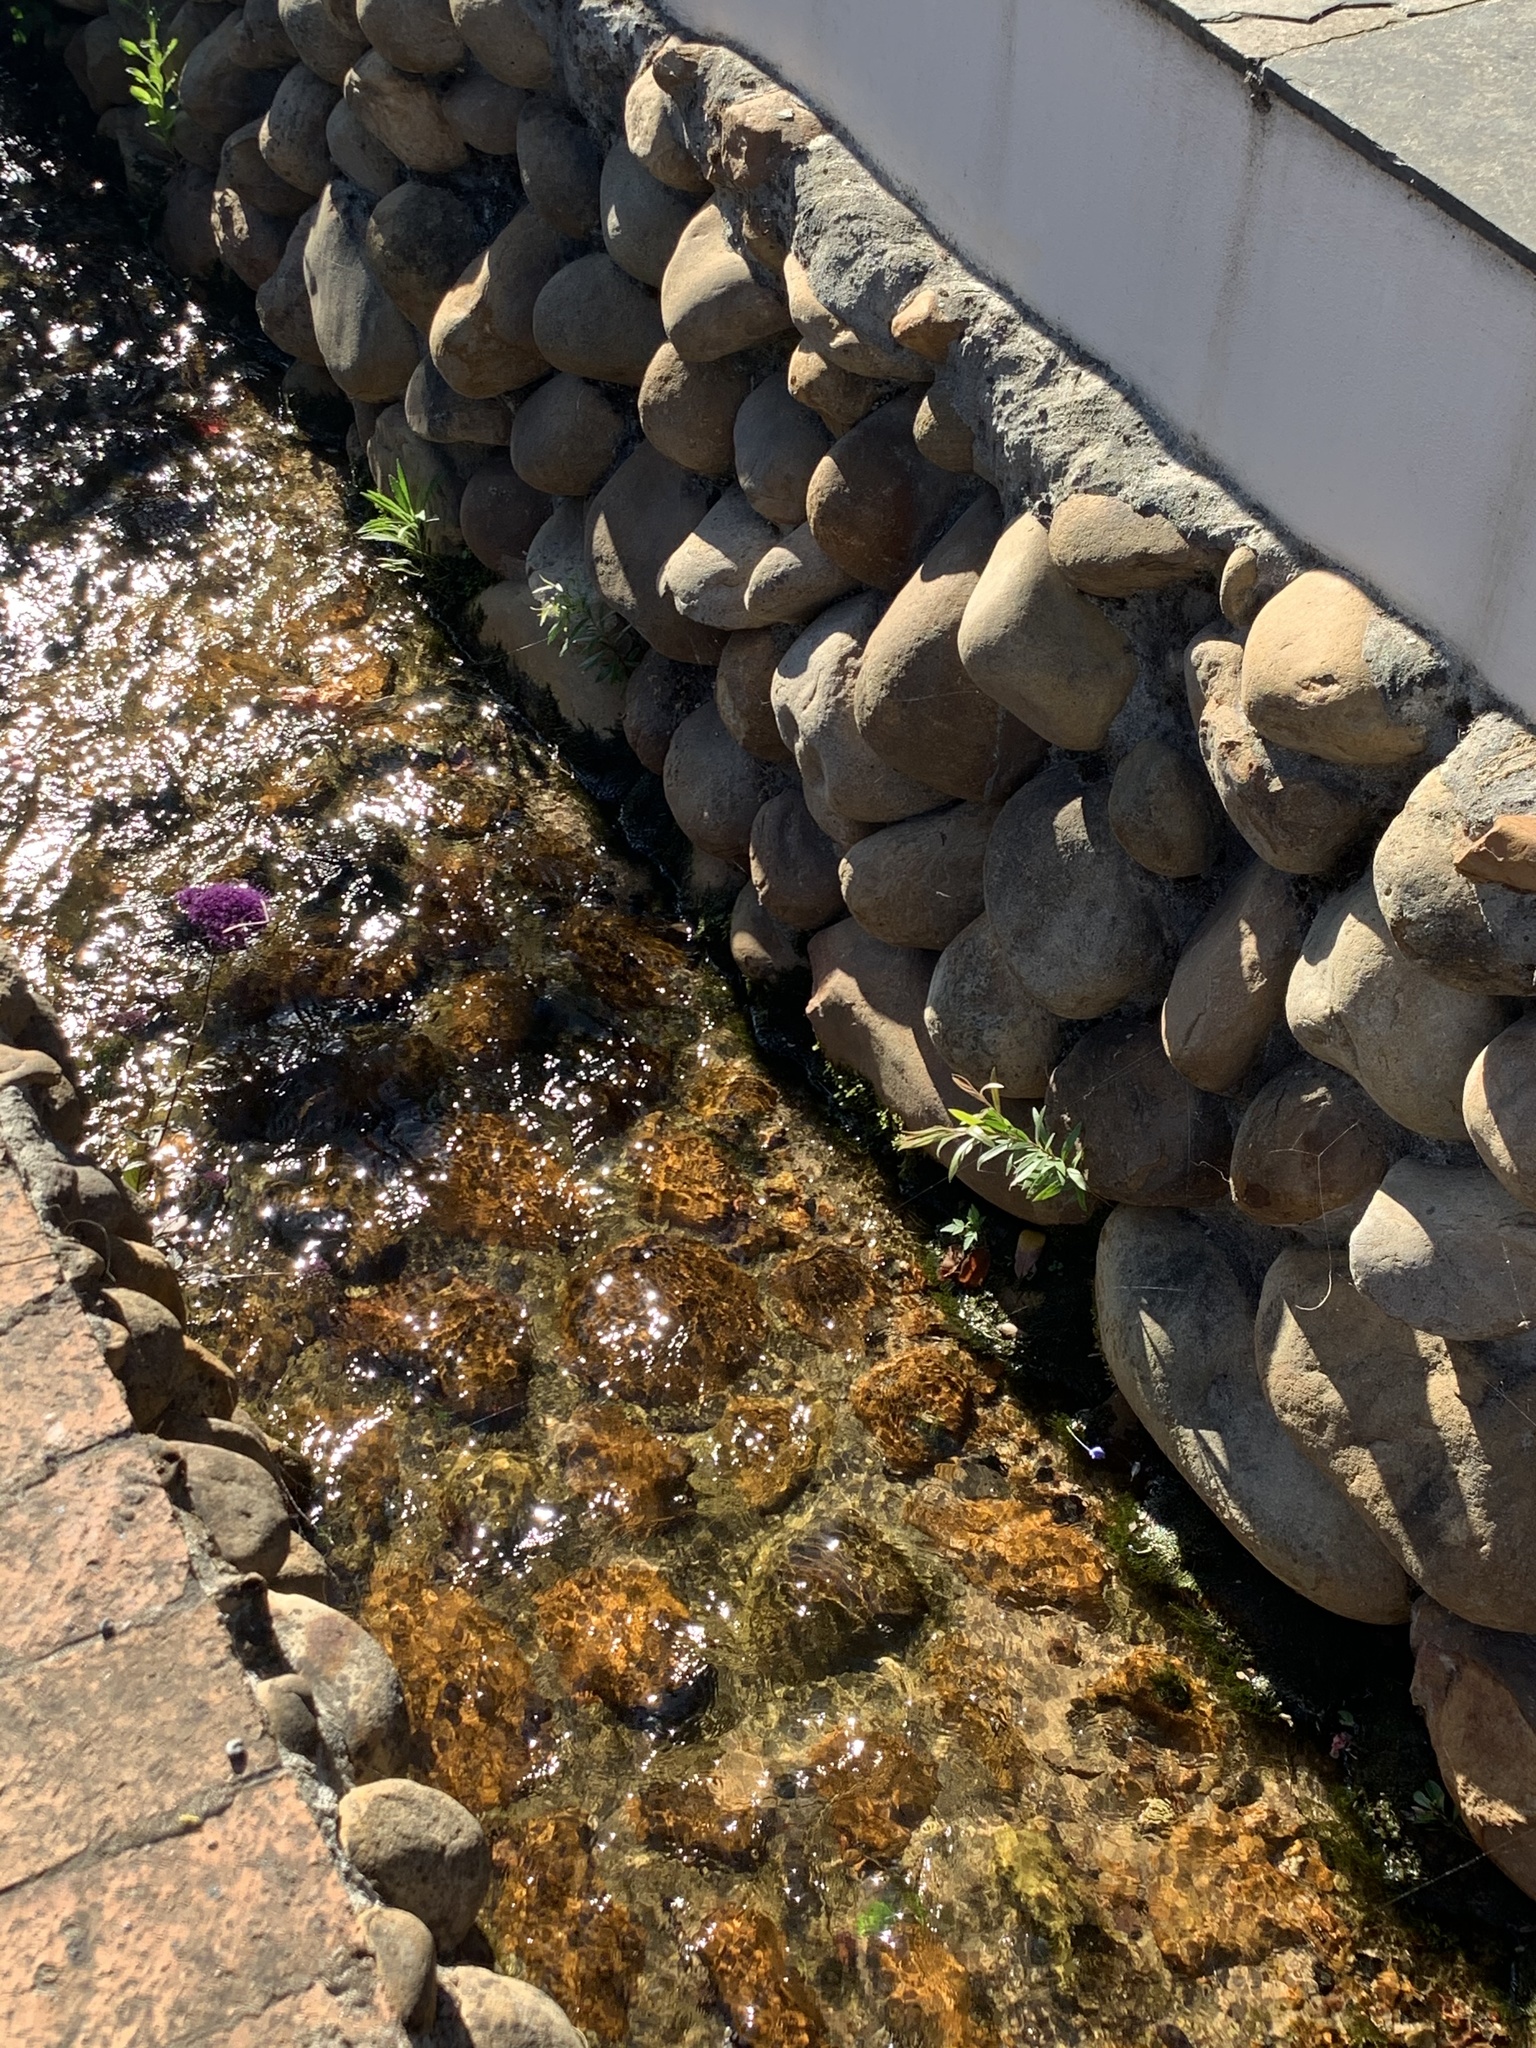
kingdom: Plantae
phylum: Tracheophyta
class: Magnoliopsida
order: Myrtales
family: Myrtaceae
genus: Callistemon
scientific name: Callistemon viminalis
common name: Drooping bottlebrush
